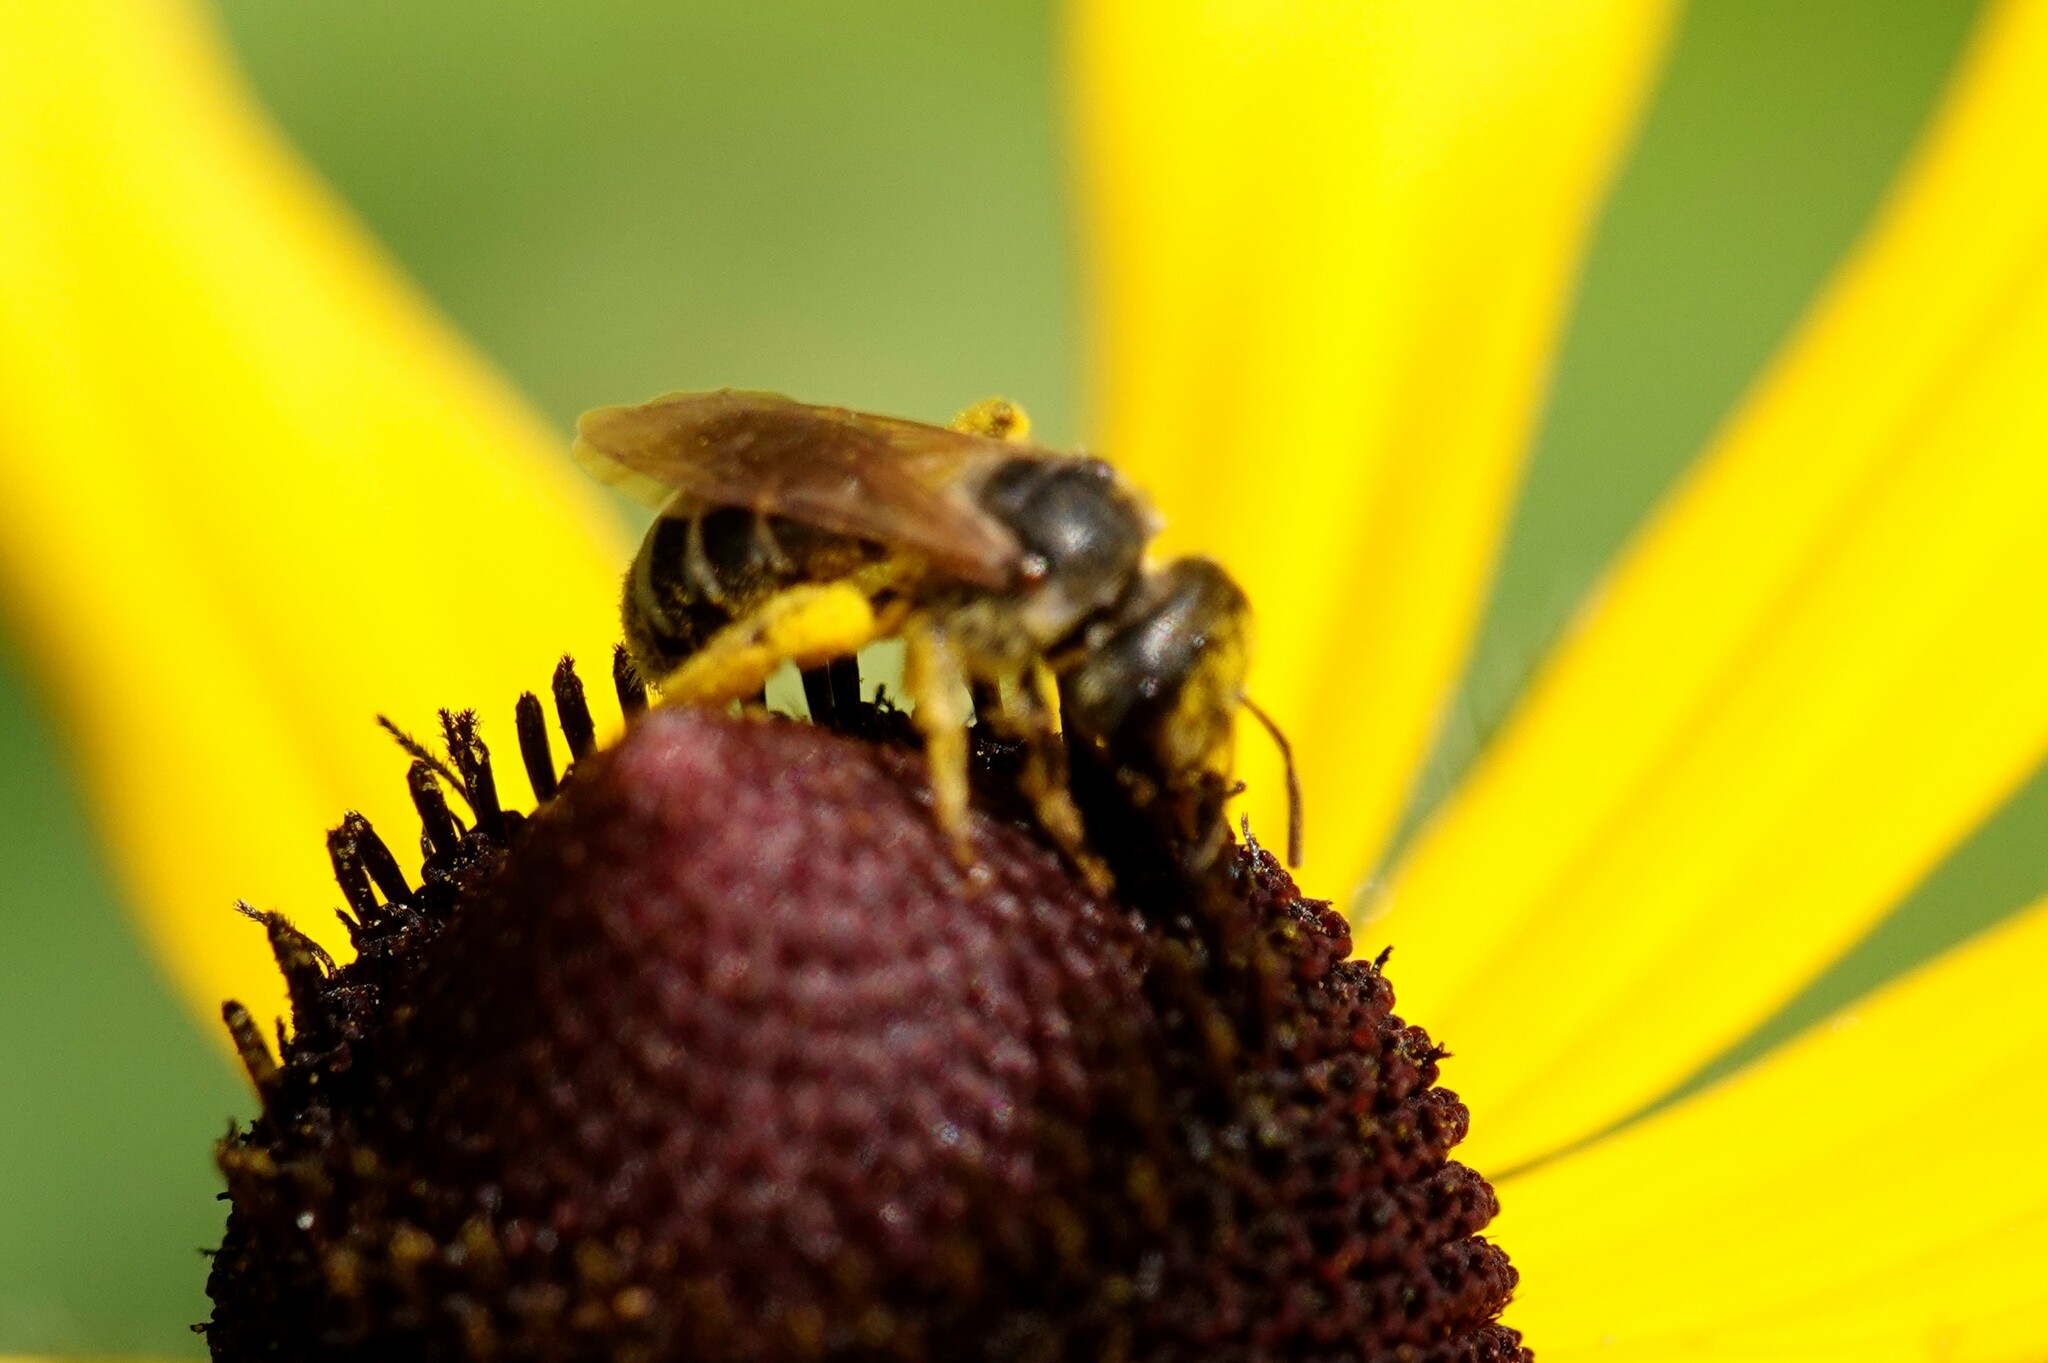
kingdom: Animalia
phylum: Arthropoda
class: Insecta
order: Hymenoptera
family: Halictidae
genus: Halictus
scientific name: Halictus ligatus
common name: Ligated furrow bee
